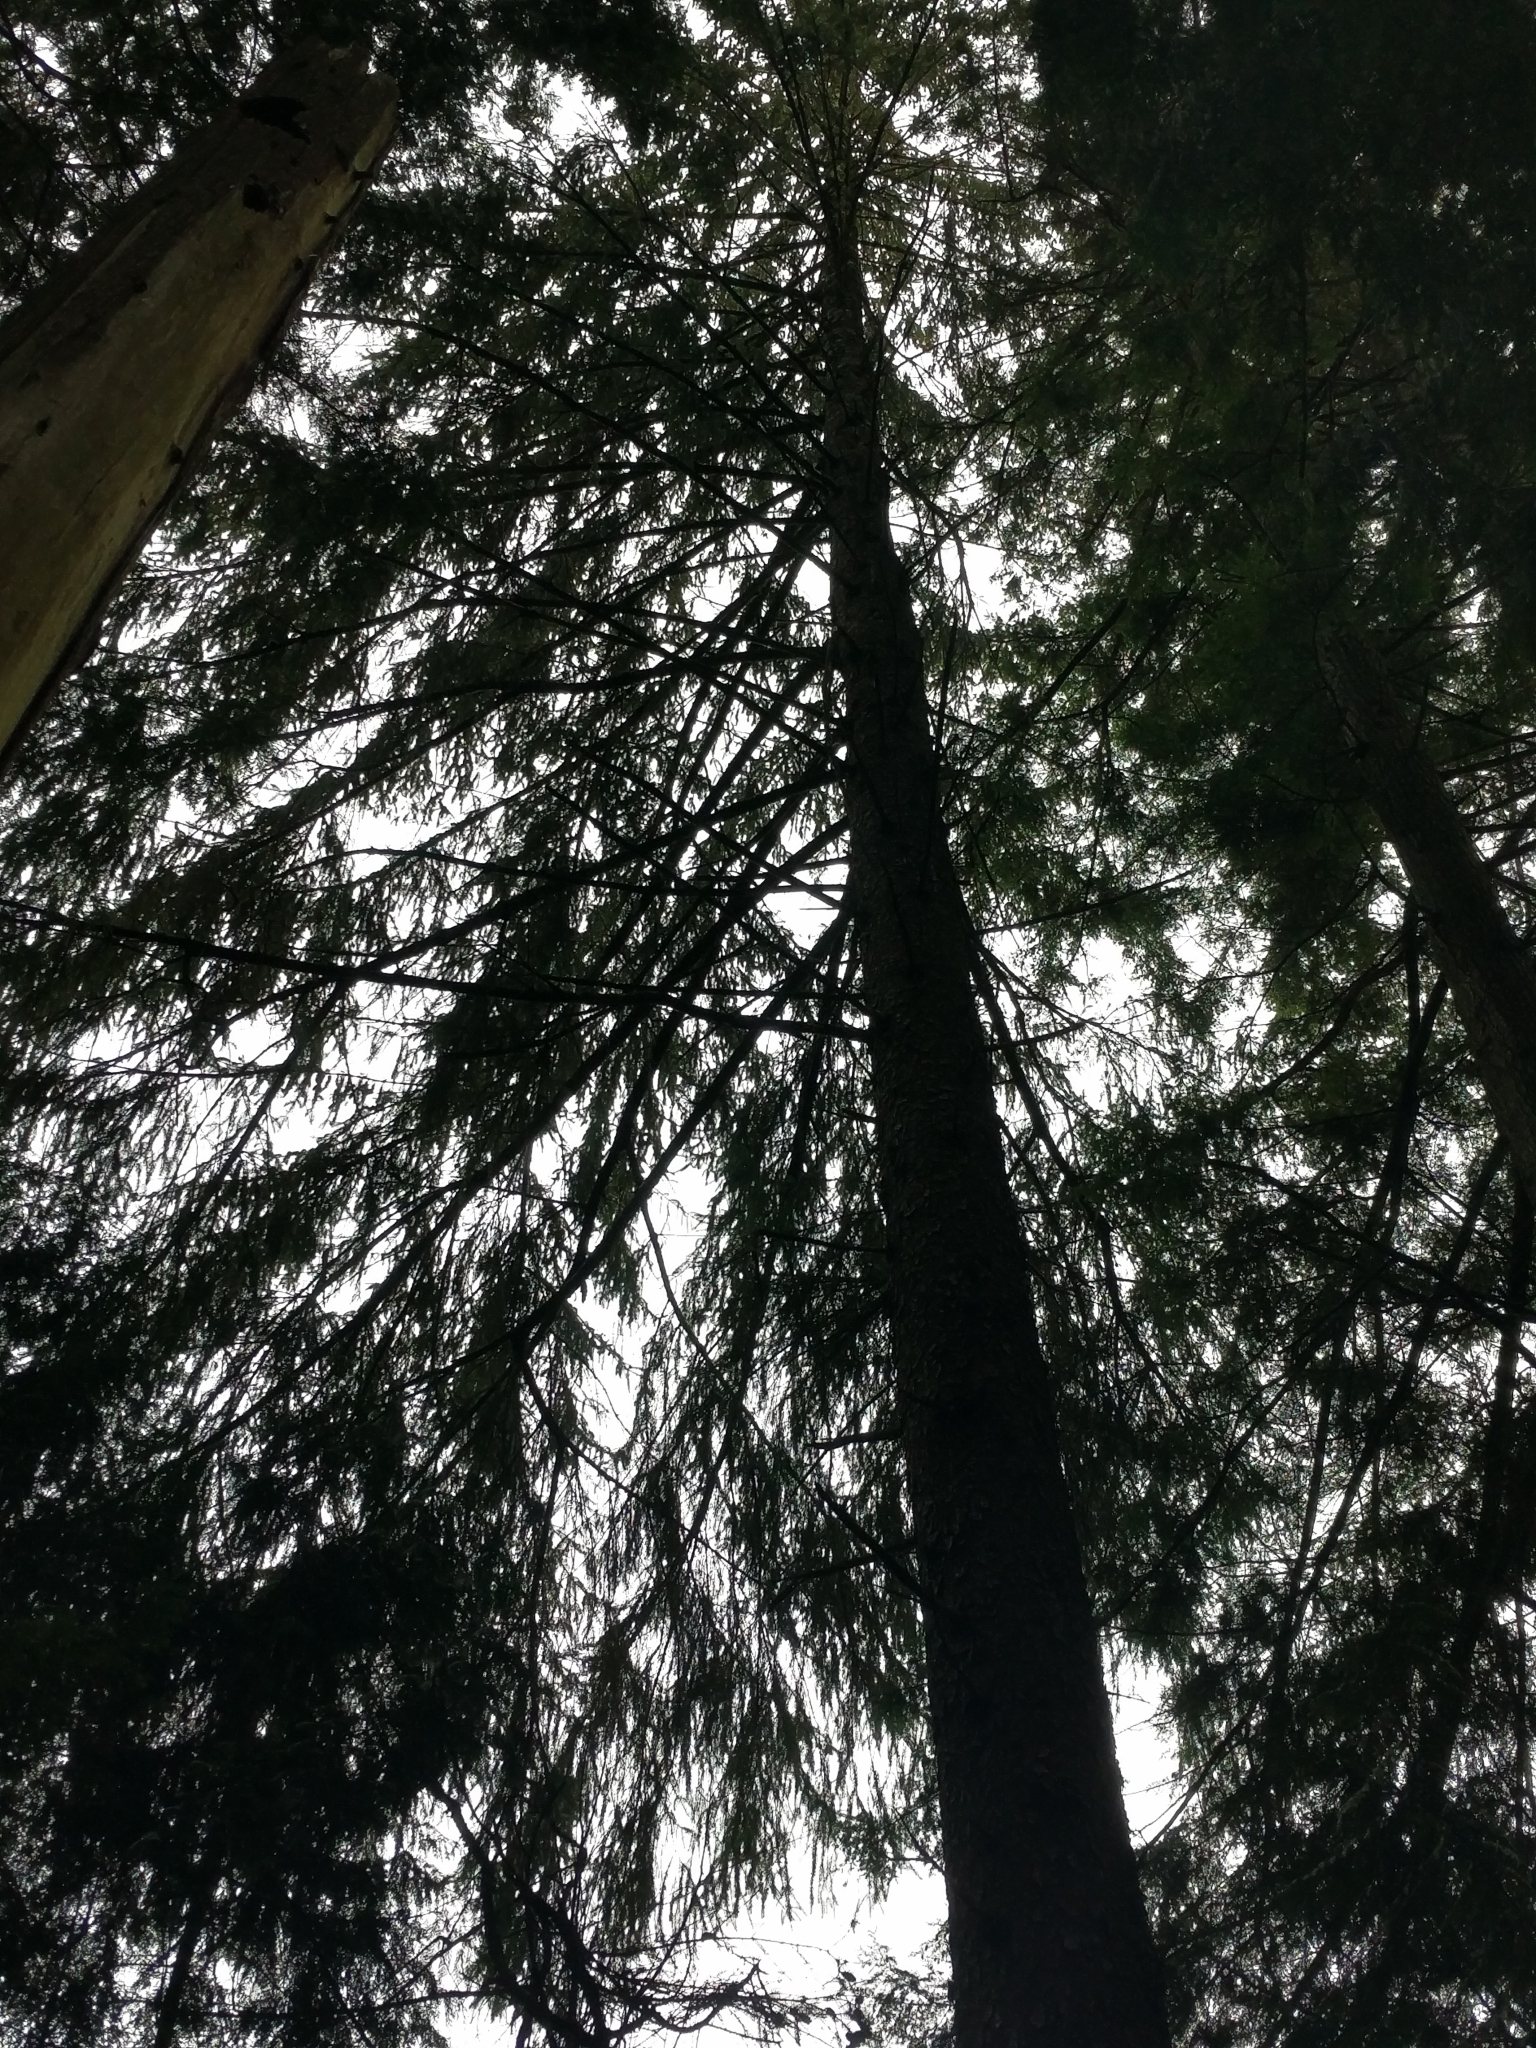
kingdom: Plantae
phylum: Tracheophyta
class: Pinopsida
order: Pinales
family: Pinaceae
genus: Picea
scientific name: Picea sitchensis
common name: Sitka spruce
